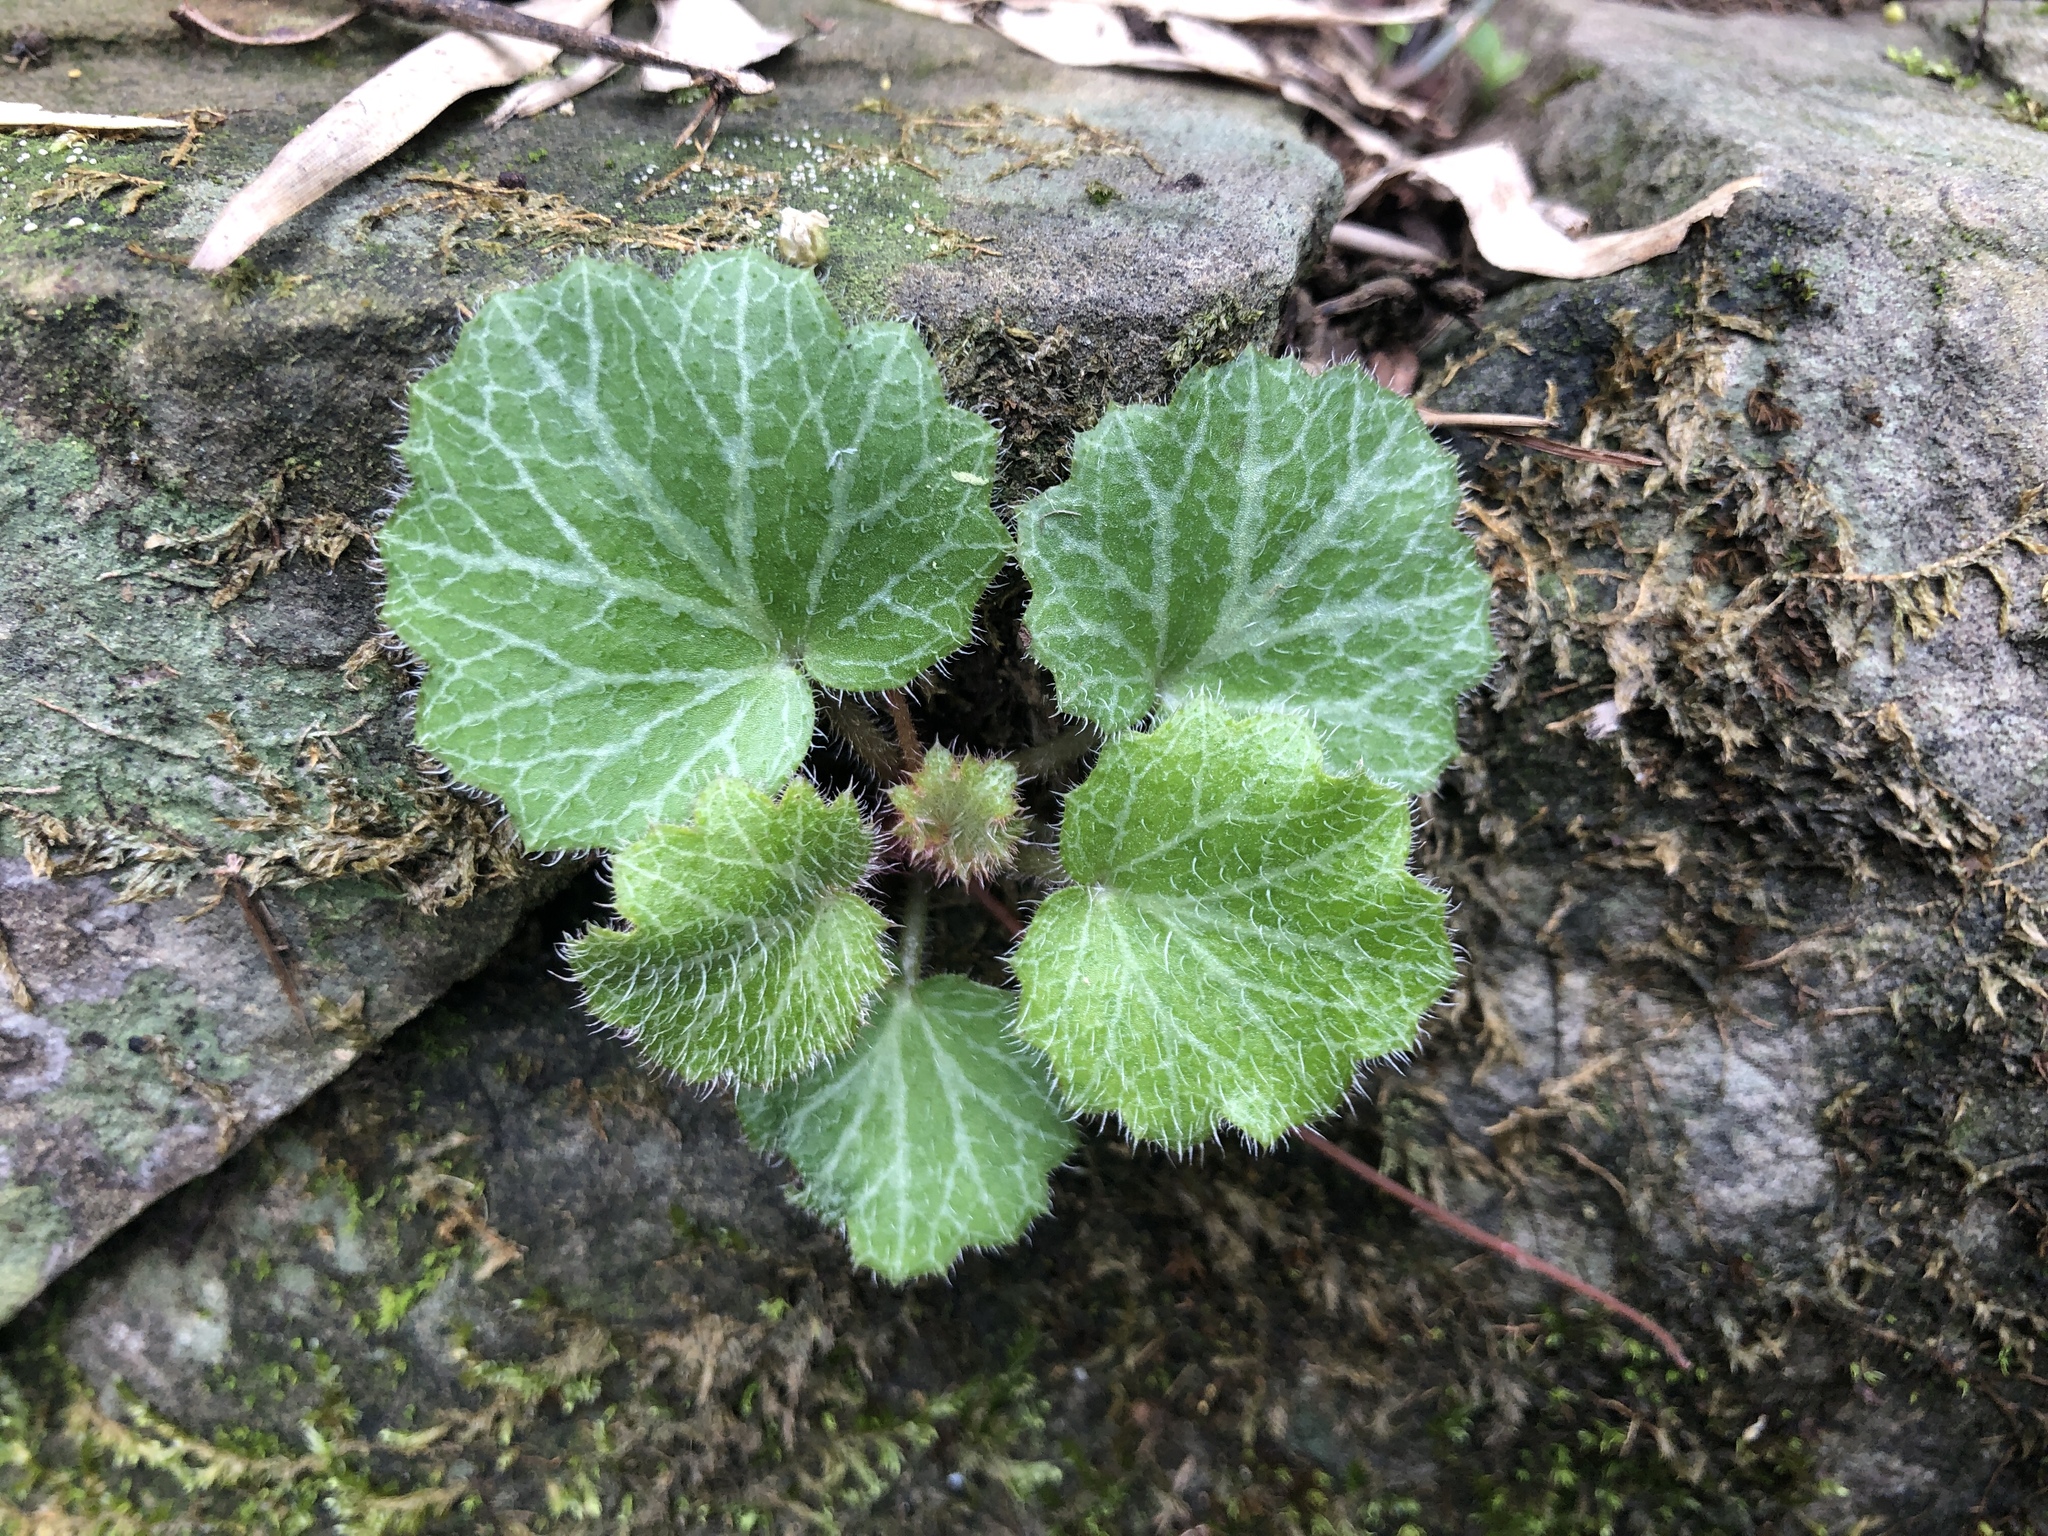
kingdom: Plantae
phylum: Tracheophyta
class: Magnoliopsida
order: Saxifragales
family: Saxifragaceae
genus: Saxifraga
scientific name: Saxifraga stolonifera
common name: Creeping saxifrage
